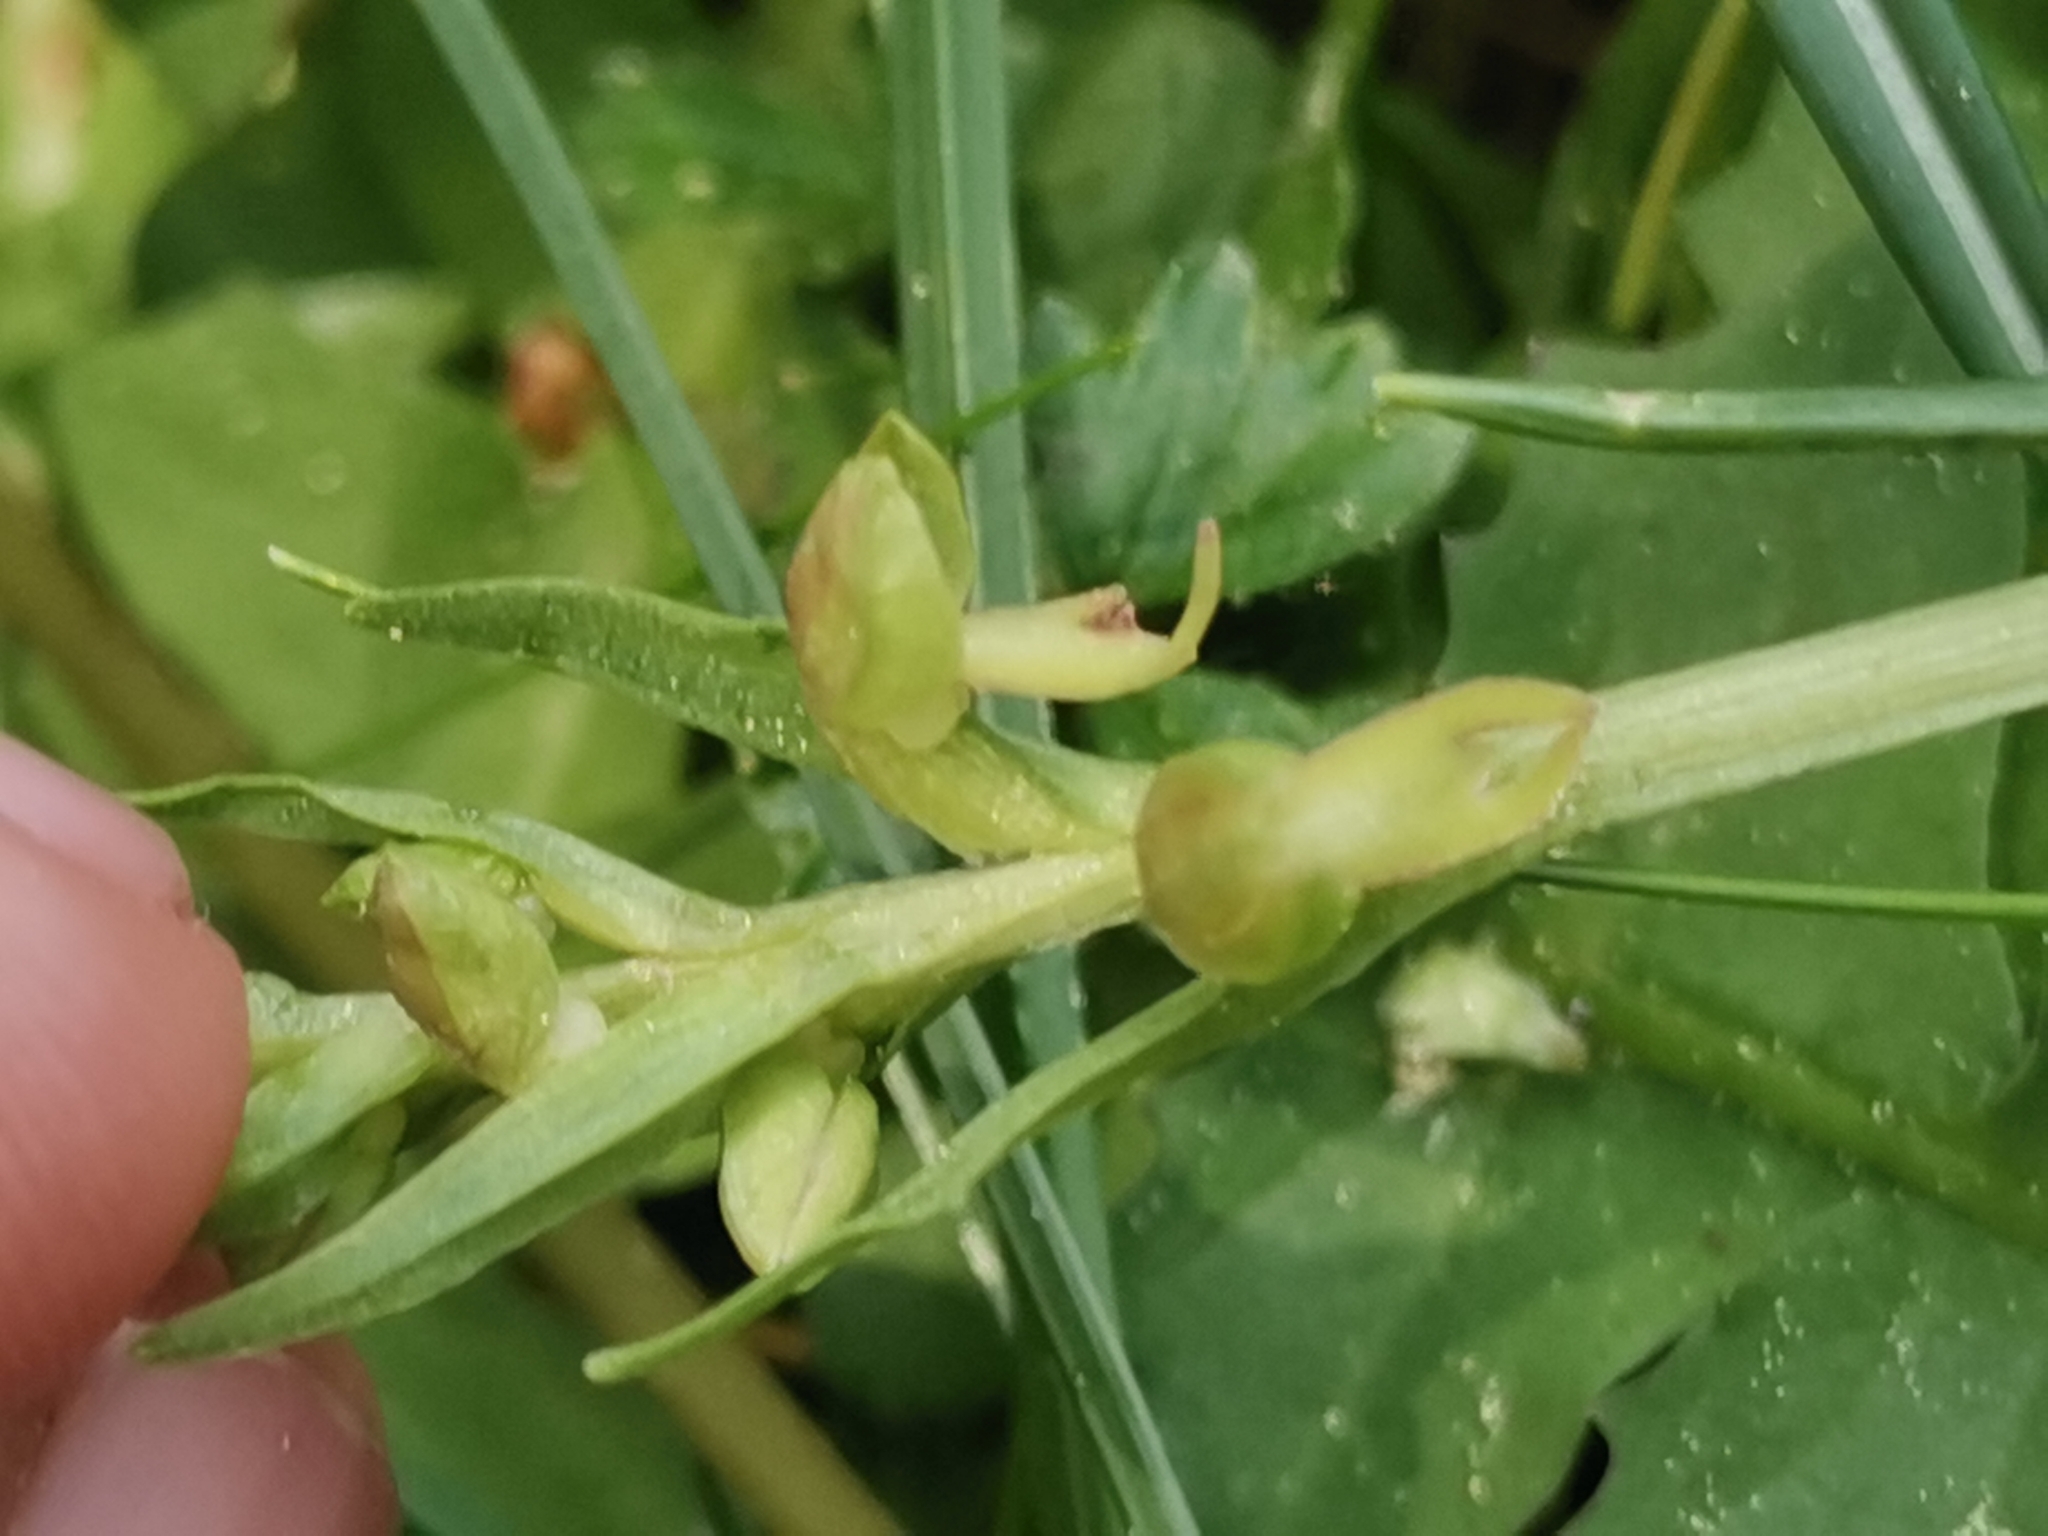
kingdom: Plantae
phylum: Tracheophyta
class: Liliopsida
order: Asparagales
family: Orchidaceae
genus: Dactylorhiza
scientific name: Dactylorhiza viridis
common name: Longbract frog orchid
